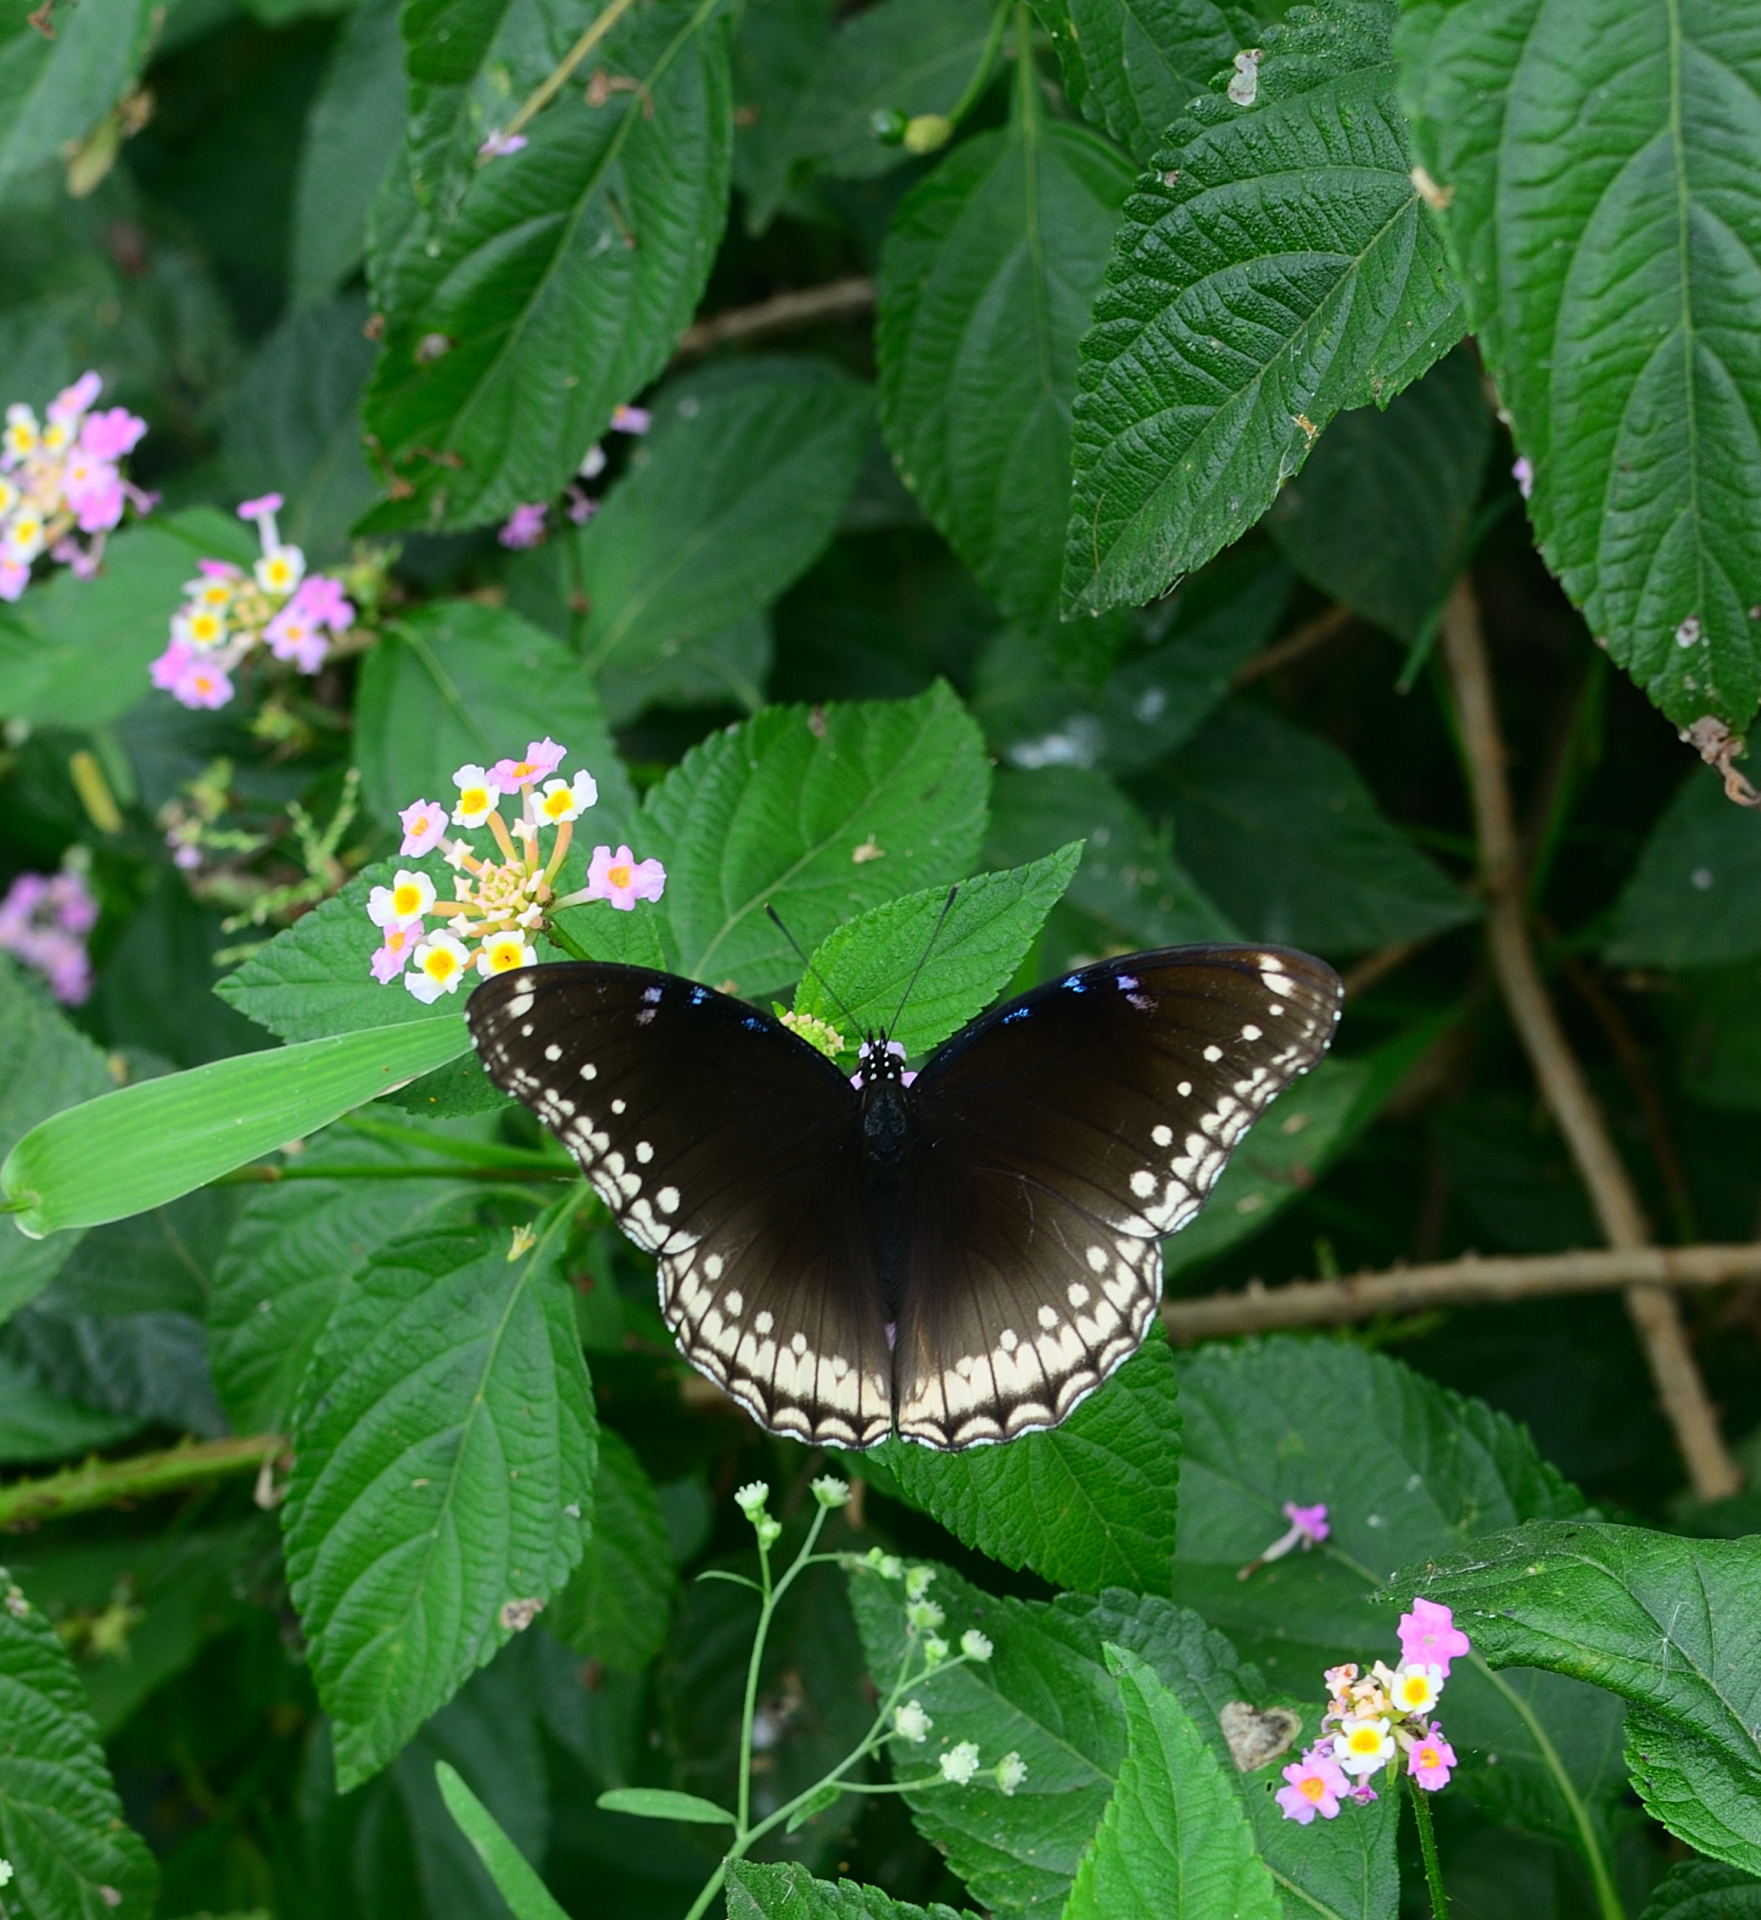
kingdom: Animalia
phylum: Arthropoda
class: Insecta
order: Lepidoptera
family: Nymphalidae
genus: Hypolimnas
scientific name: Hypolimnas bolina
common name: Great eggfly
